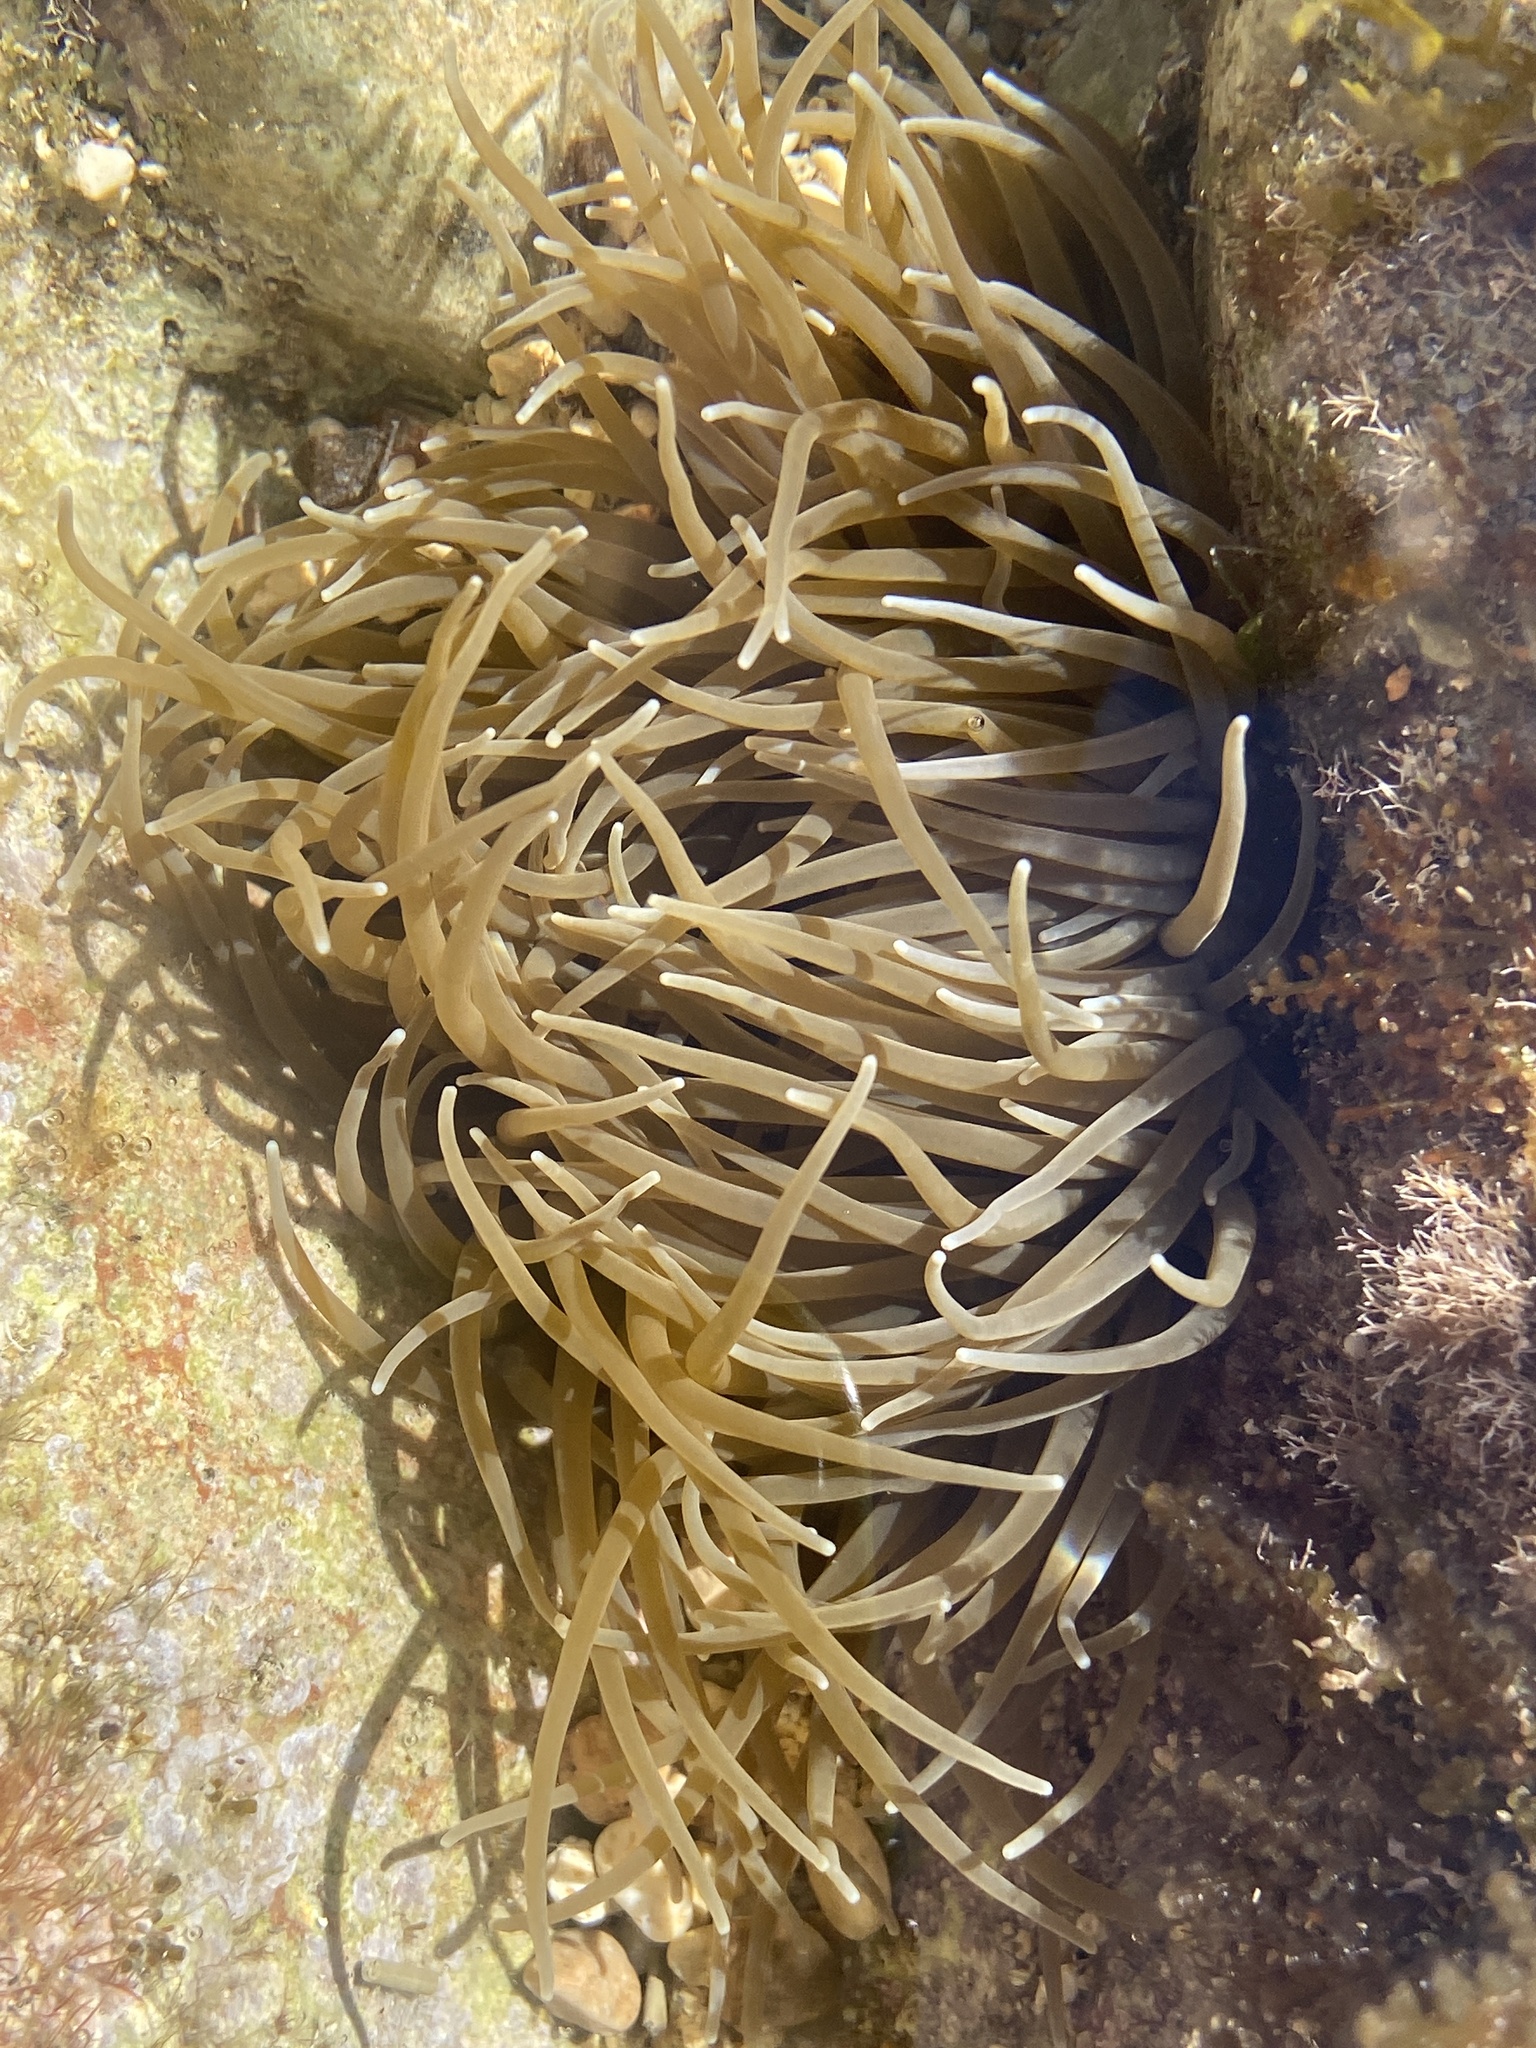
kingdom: Animalia
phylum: Cnidaria
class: Anthozoa
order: Actiniaria
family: Actiniidae
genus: Anemonia
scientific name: Anemonia viridis
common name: Snakelocks anemone
